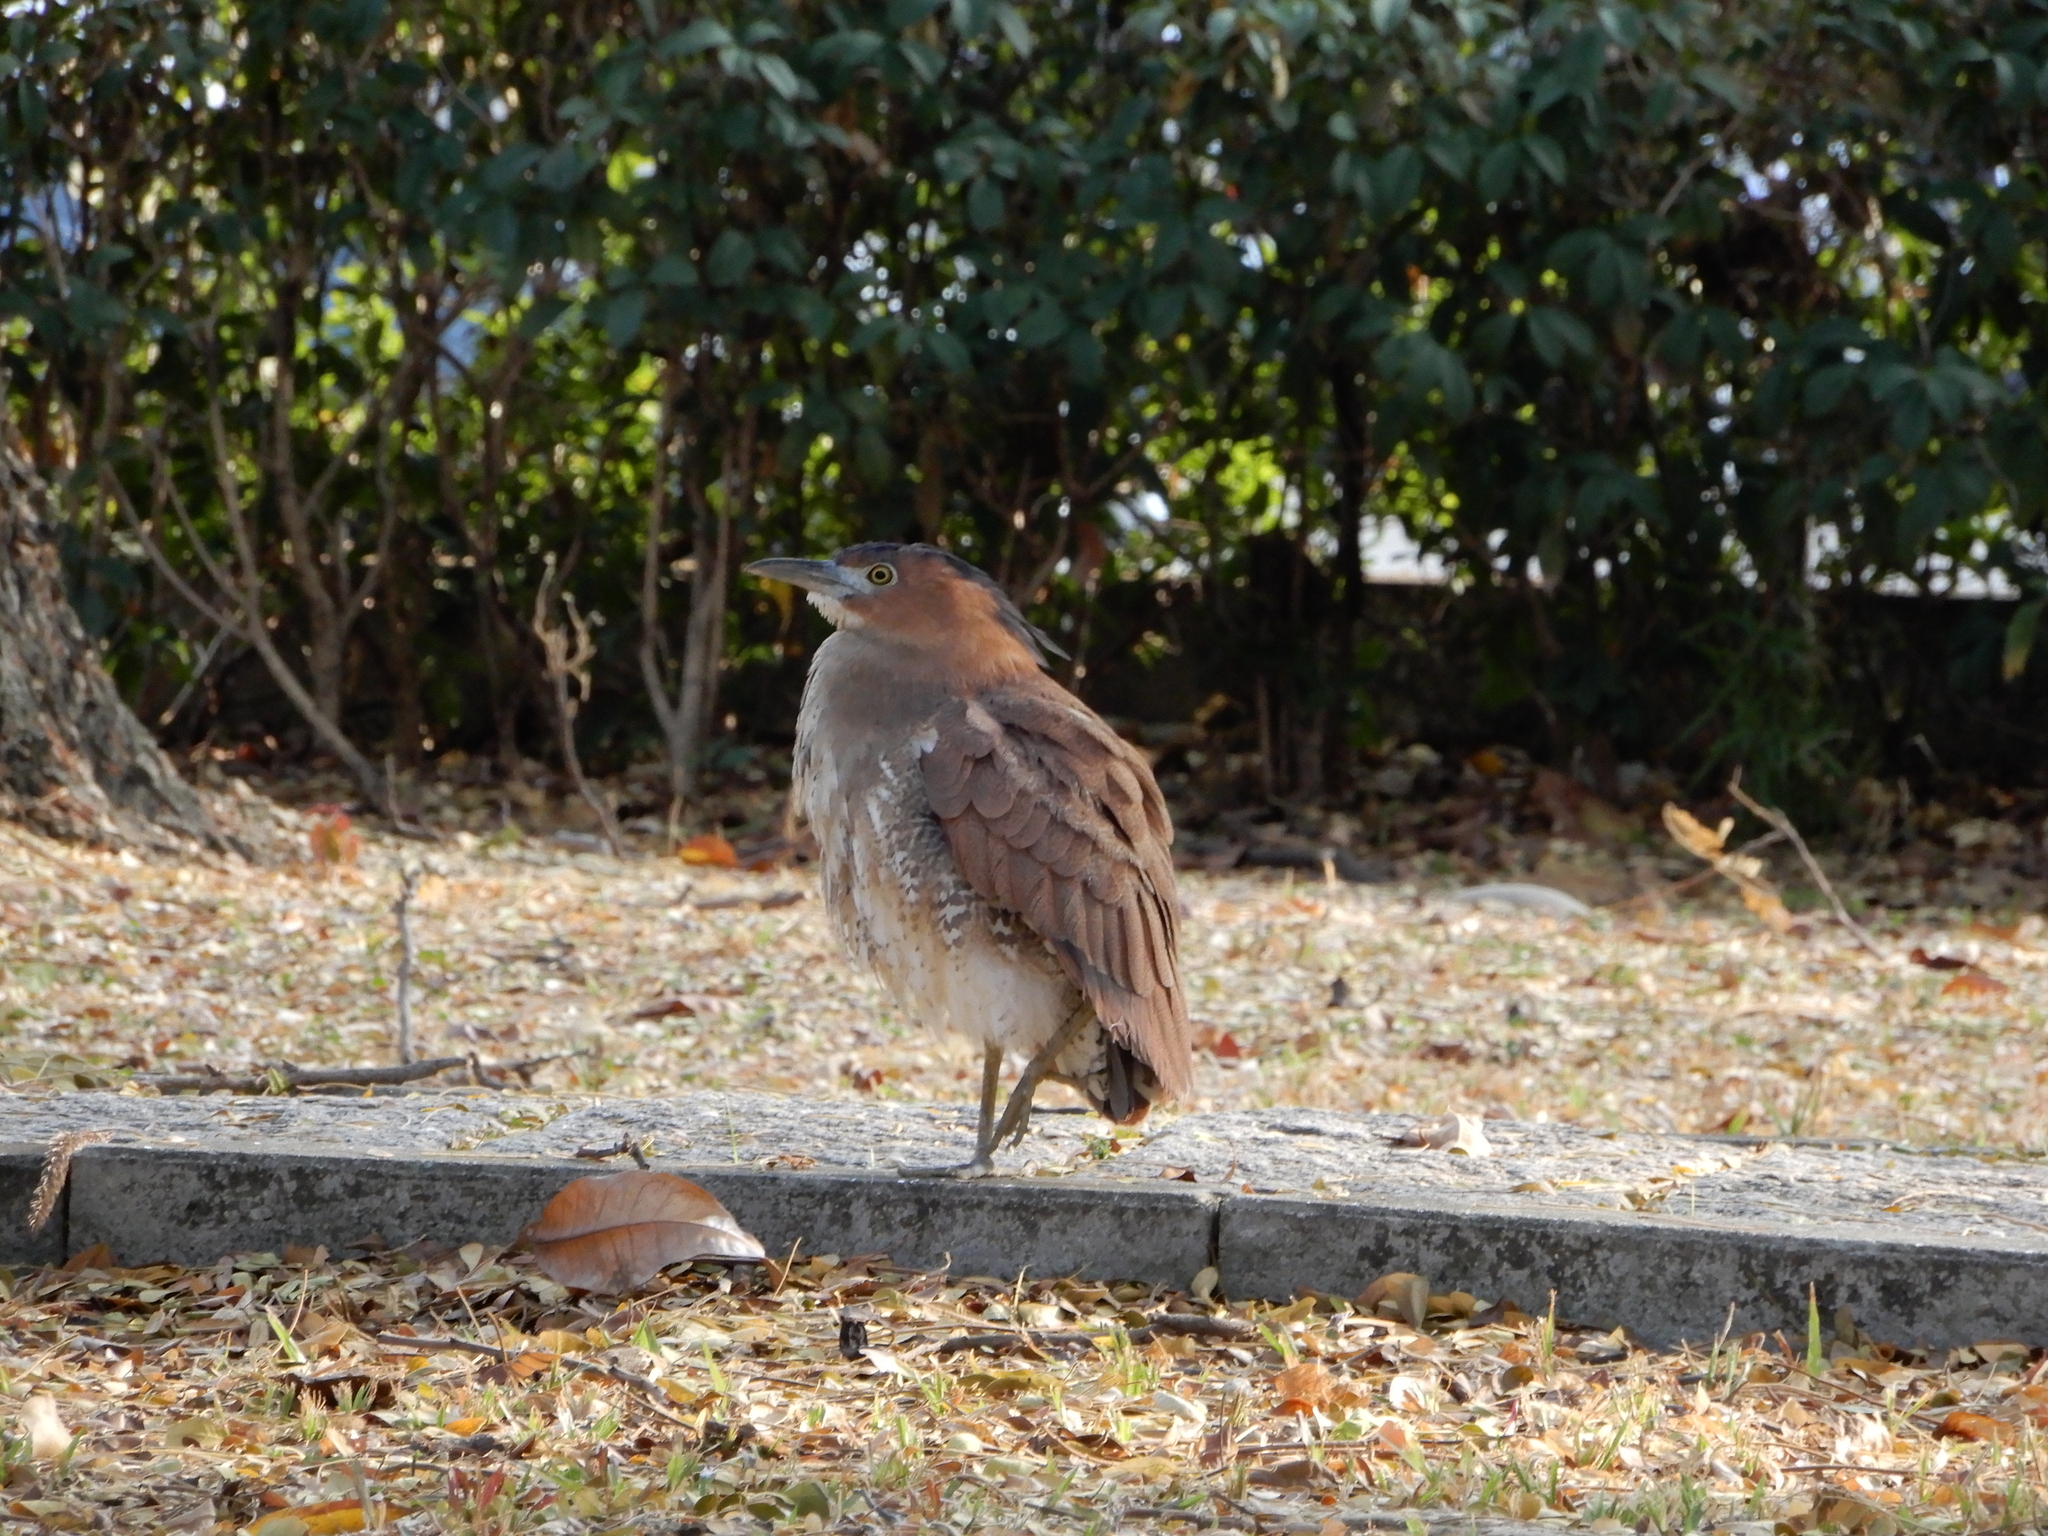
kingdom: Animalia
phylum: Chordata
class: Aves
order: Pelecaniformes
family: Ardeidae
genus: Gorsachius
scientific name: Gorsachius melanolophus
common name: Malayan night heron
